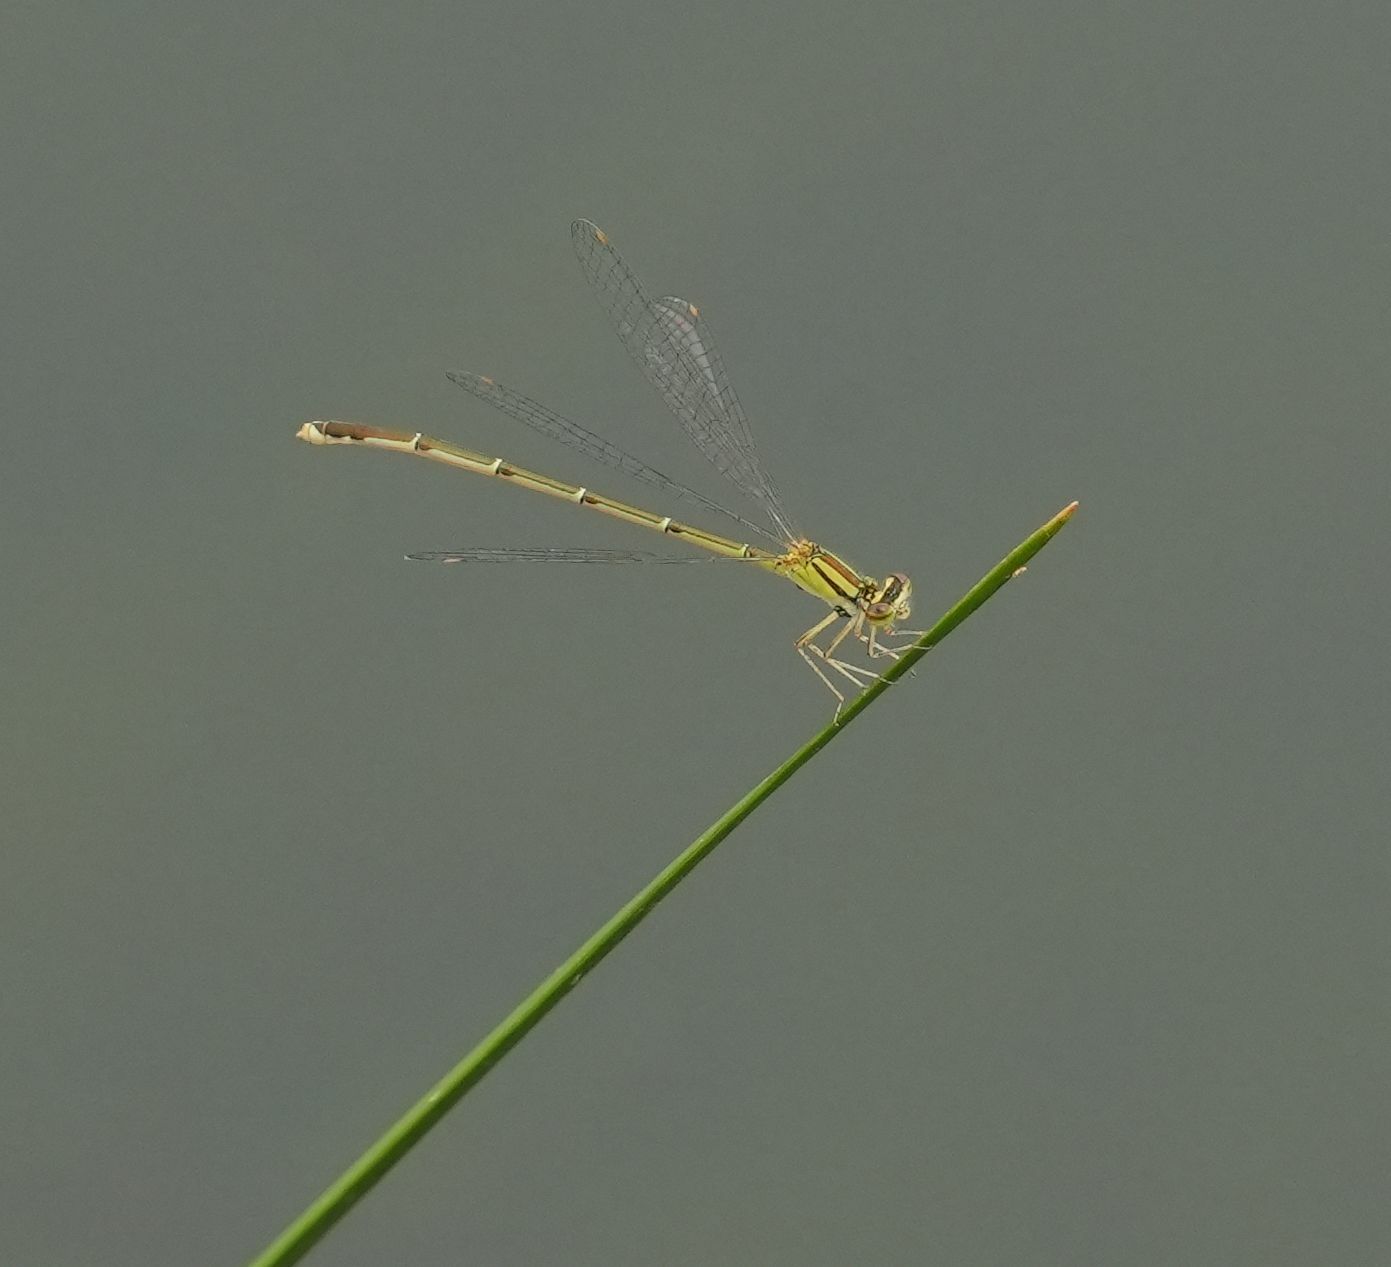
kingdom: Animalia
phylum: Arthropoda
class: Insecta
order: Odonata
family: Coenagrionidae
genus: Enallagma
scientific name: Enallagma signatum
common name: Orange bluet
